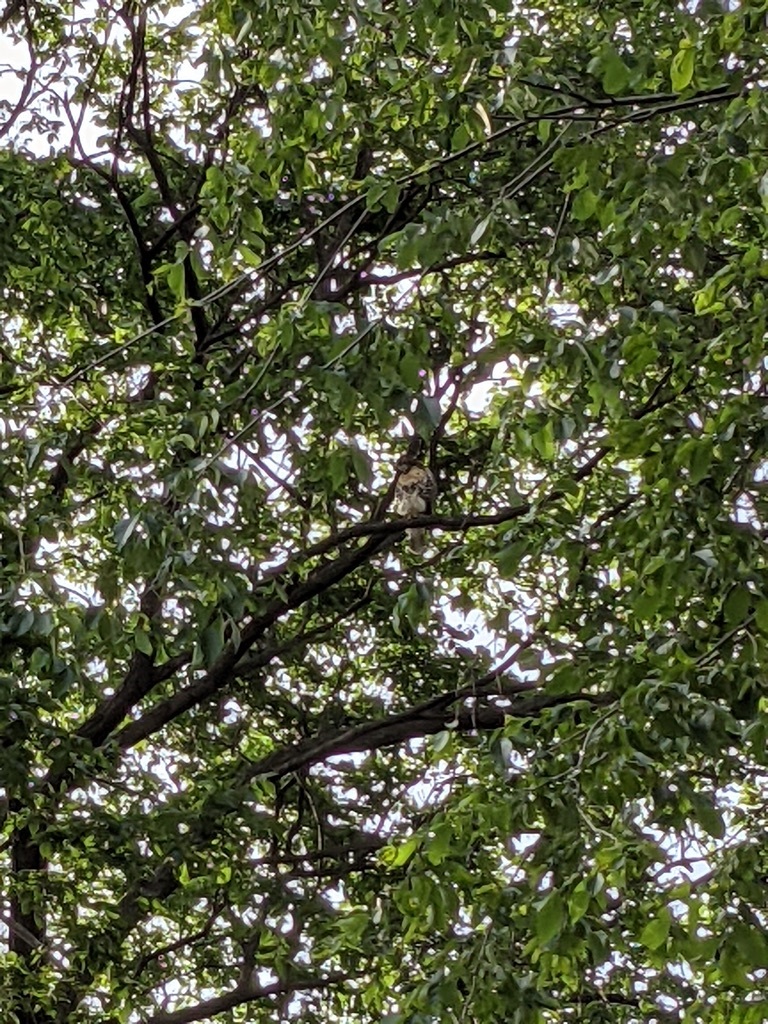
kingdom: Animalia
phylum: Chordata
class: Aves
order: Accipitriformes
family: Accipitridae
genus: Buteo
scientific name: Buteo jamaicensis
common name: Red-tailed hawk
